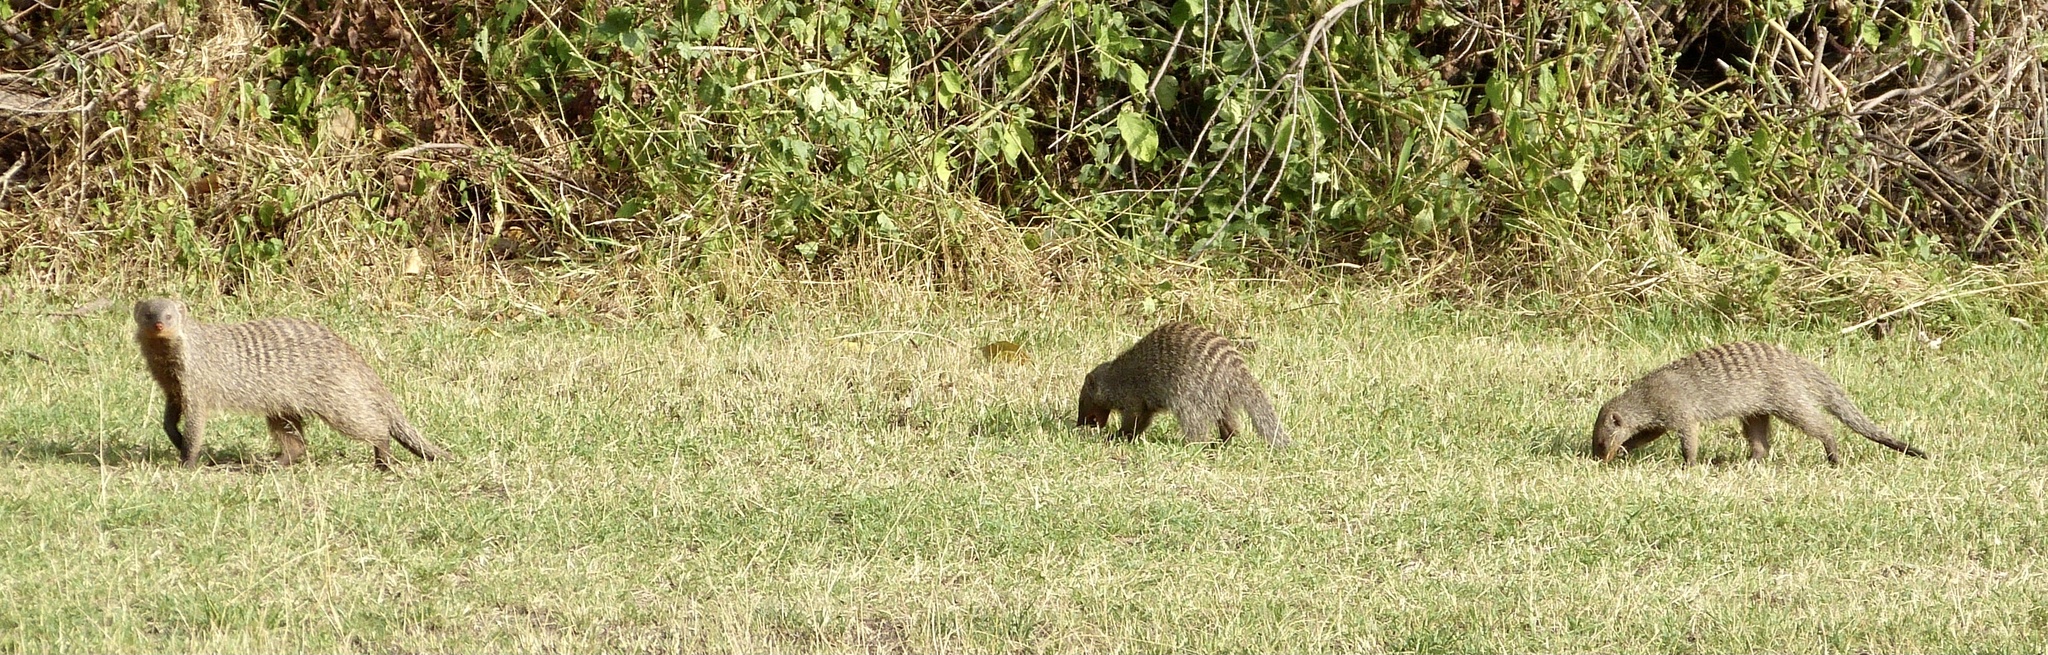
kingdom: Animalia
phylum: Chordata
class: Mammalia
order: Carnivora
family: Herpestidae
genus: Mungos
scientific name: Mungos mungo
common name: Banded mongoose
